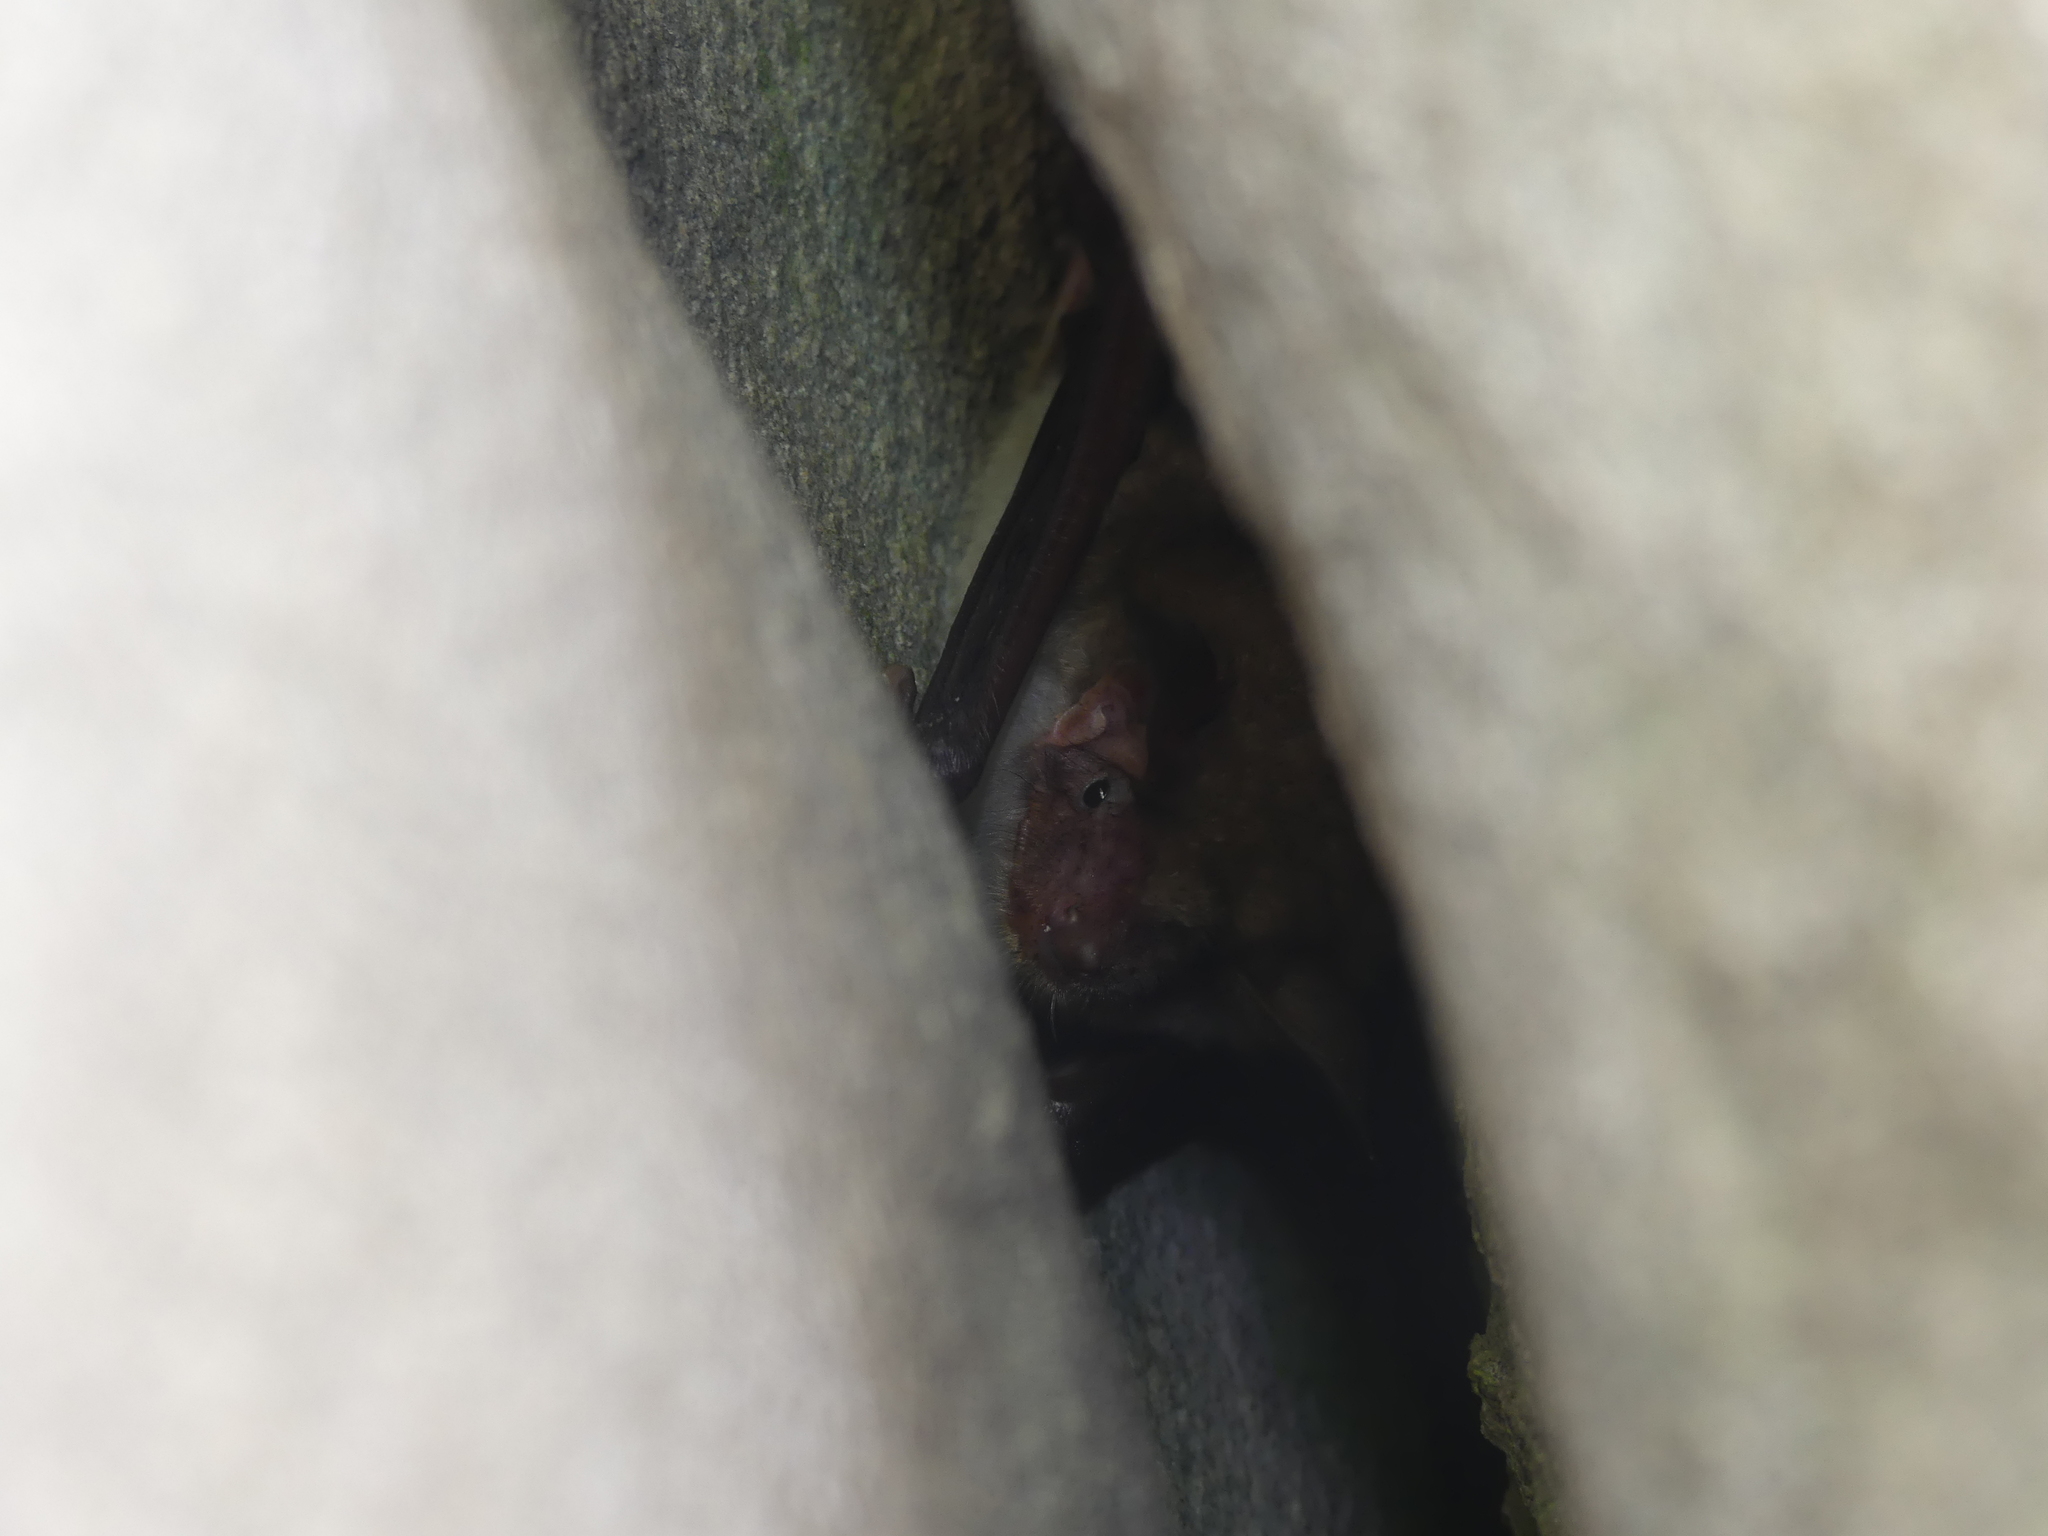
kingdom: Animalia
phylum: Chordata
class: Mammalia
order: Chiroptera
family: Vespertilionidae
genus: Myotis
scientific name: Myotis myotis
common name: Greater mouse-eared bat
